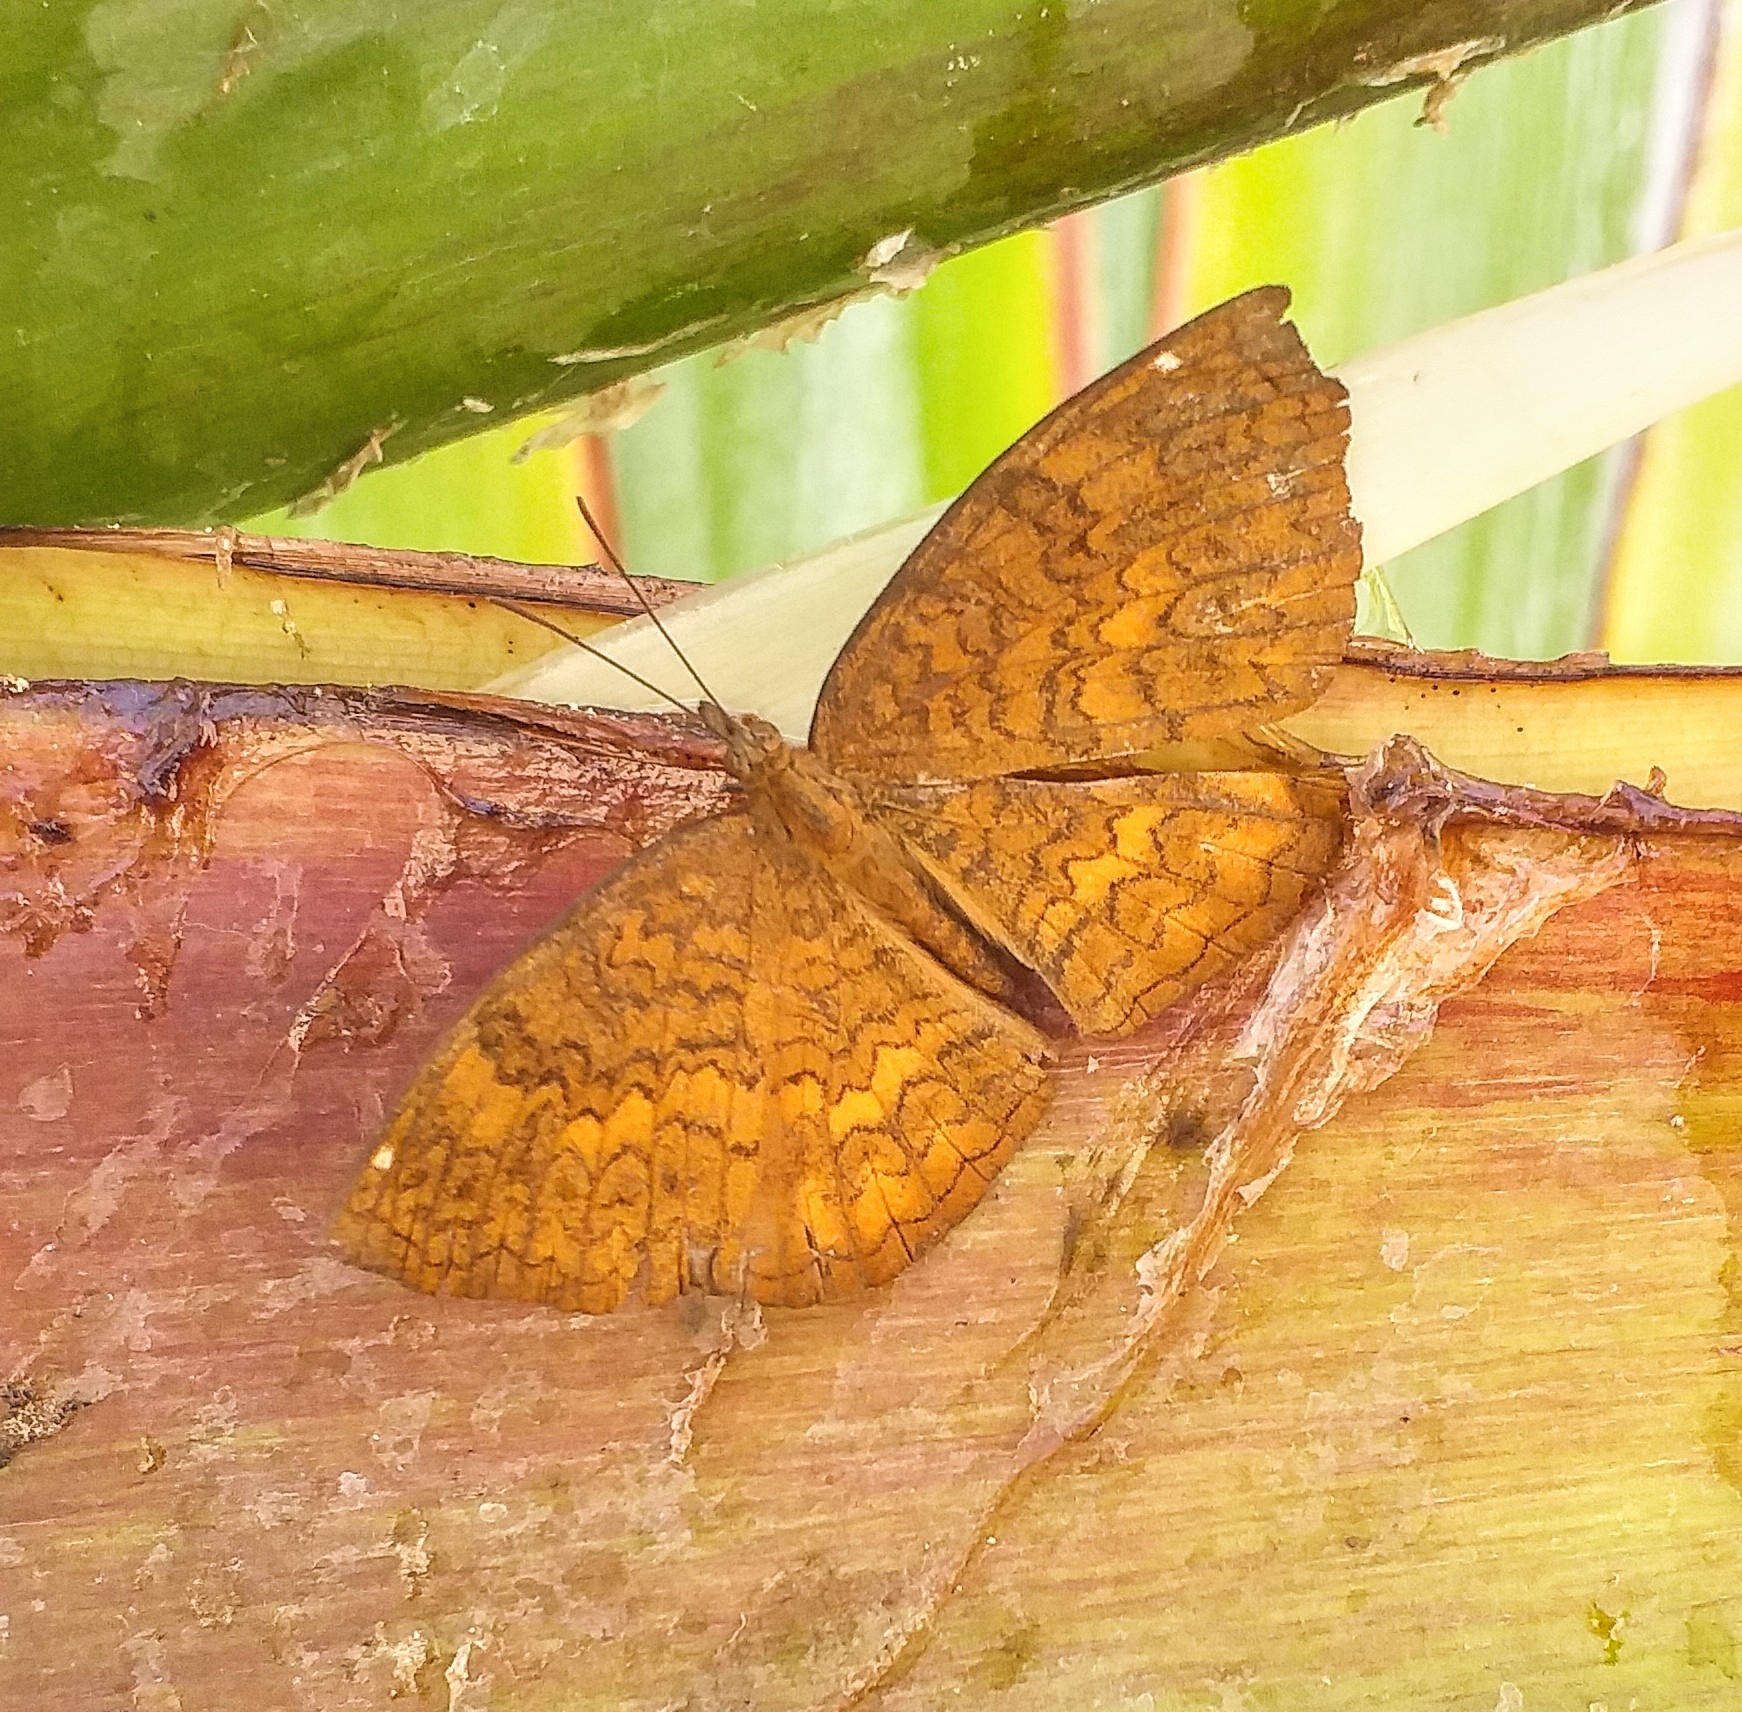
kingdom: Animalia
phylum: Arthropoda
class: Insecta
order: Lepidoptera
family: Nymphalidae
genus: Ariadne
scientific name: Ariadne merione
